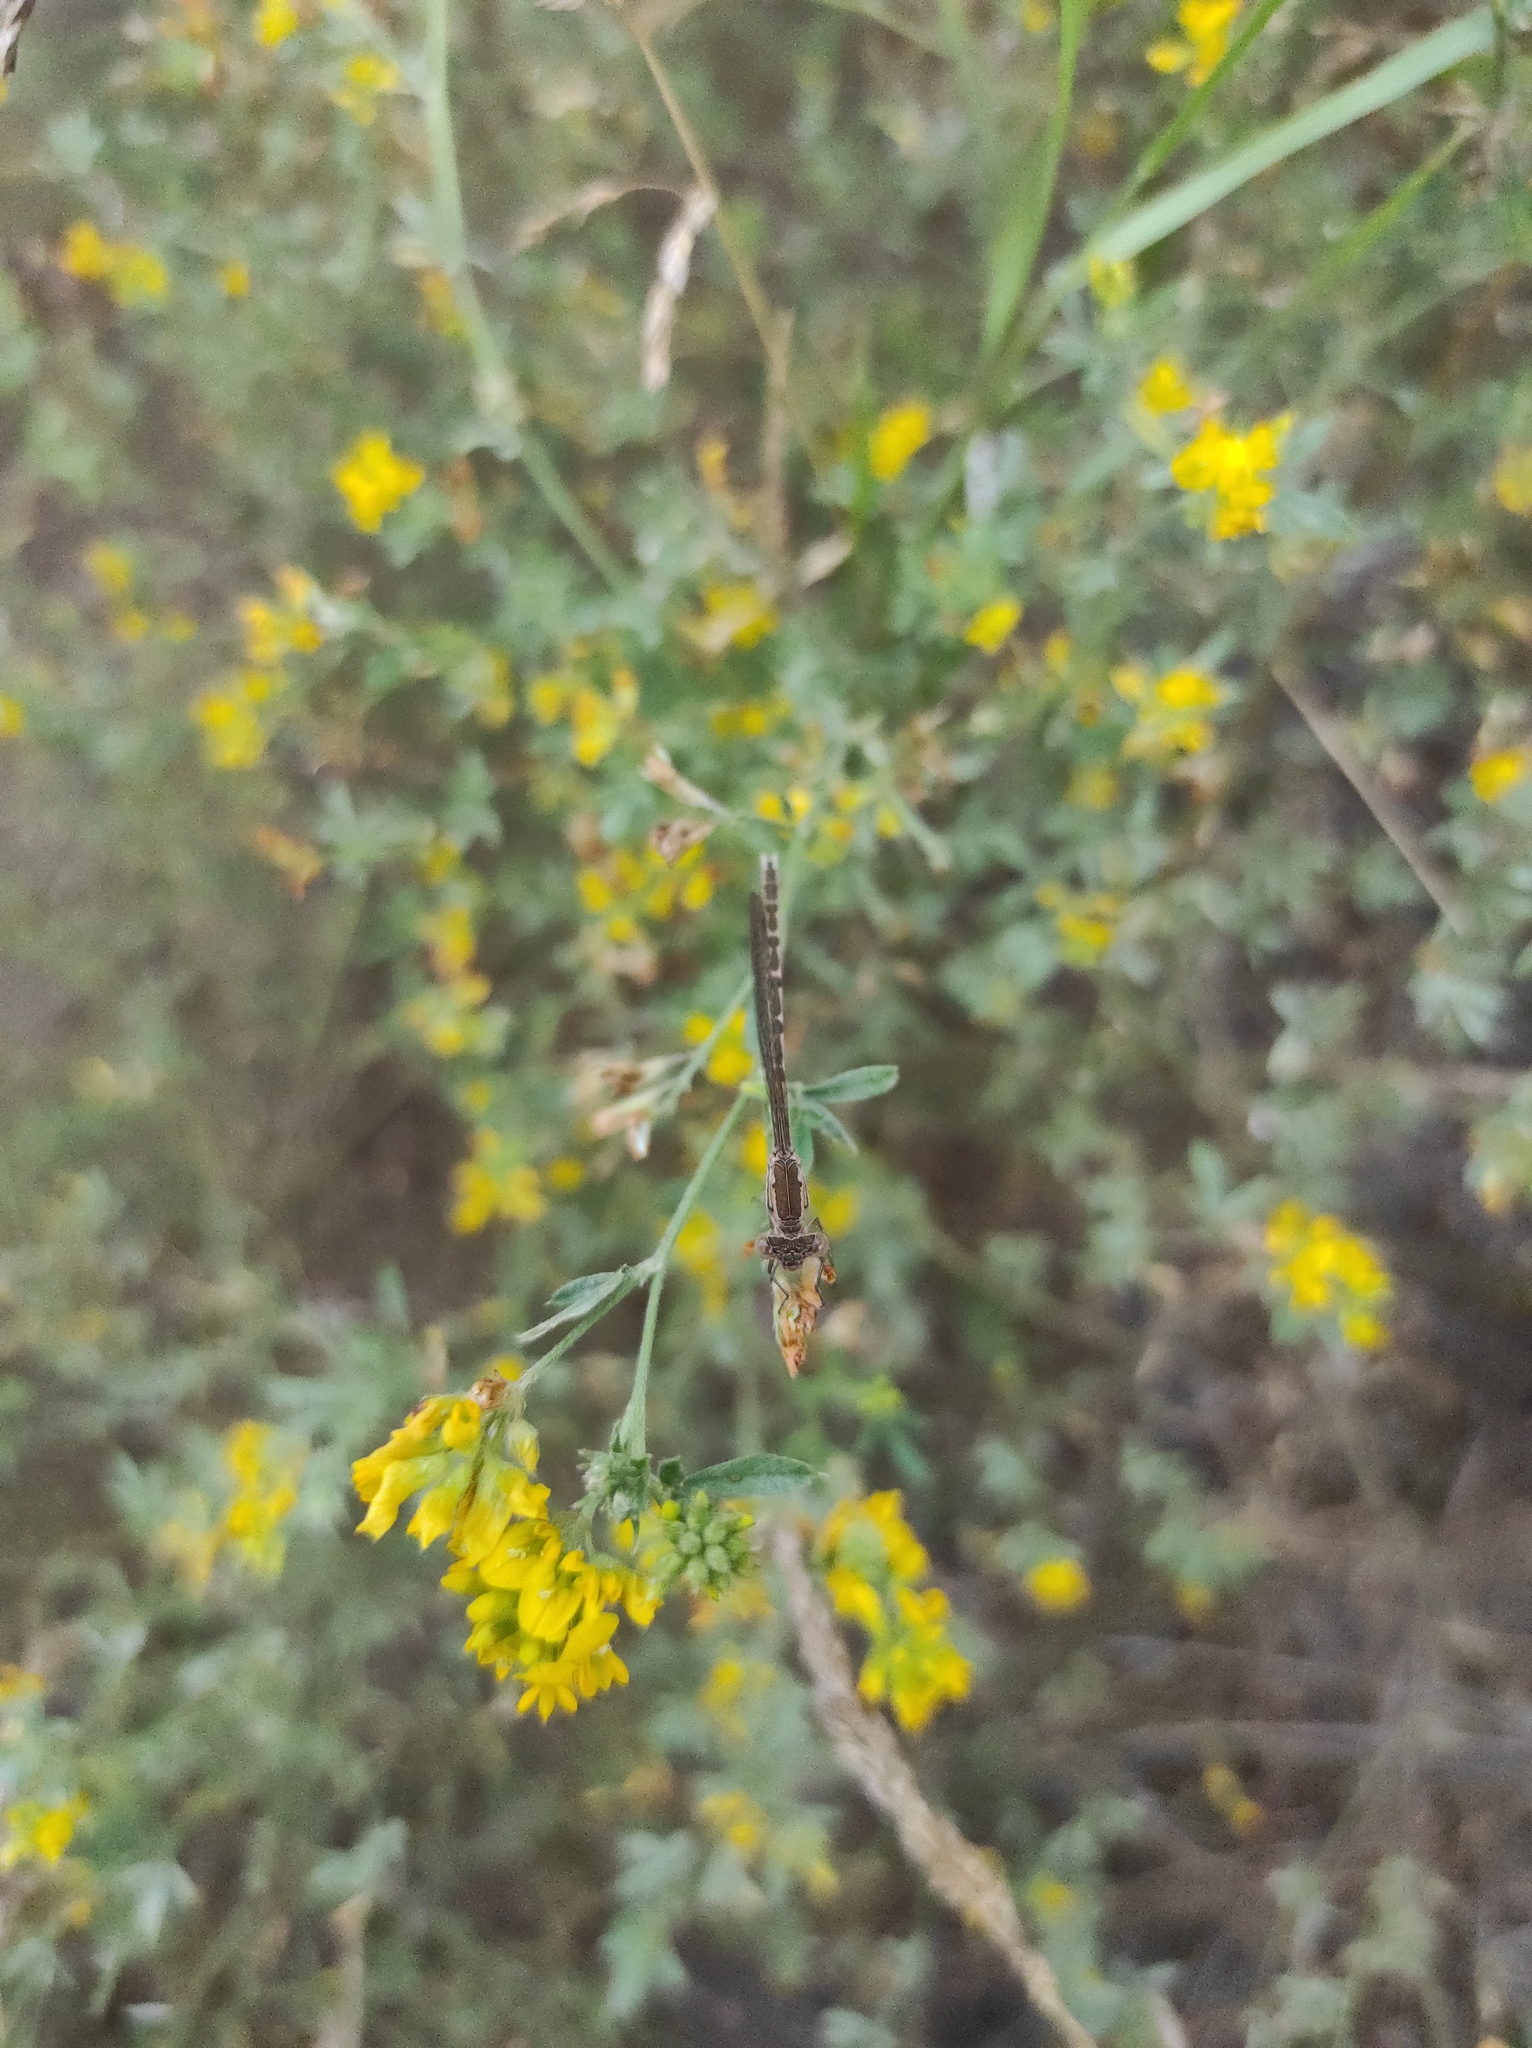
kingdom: Animalia
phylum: Arthropoda
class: Insecta
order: Odonata
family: Lestidae
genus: Sympecma
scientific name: Sympecma paedisca
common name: Siberian winter damsel
